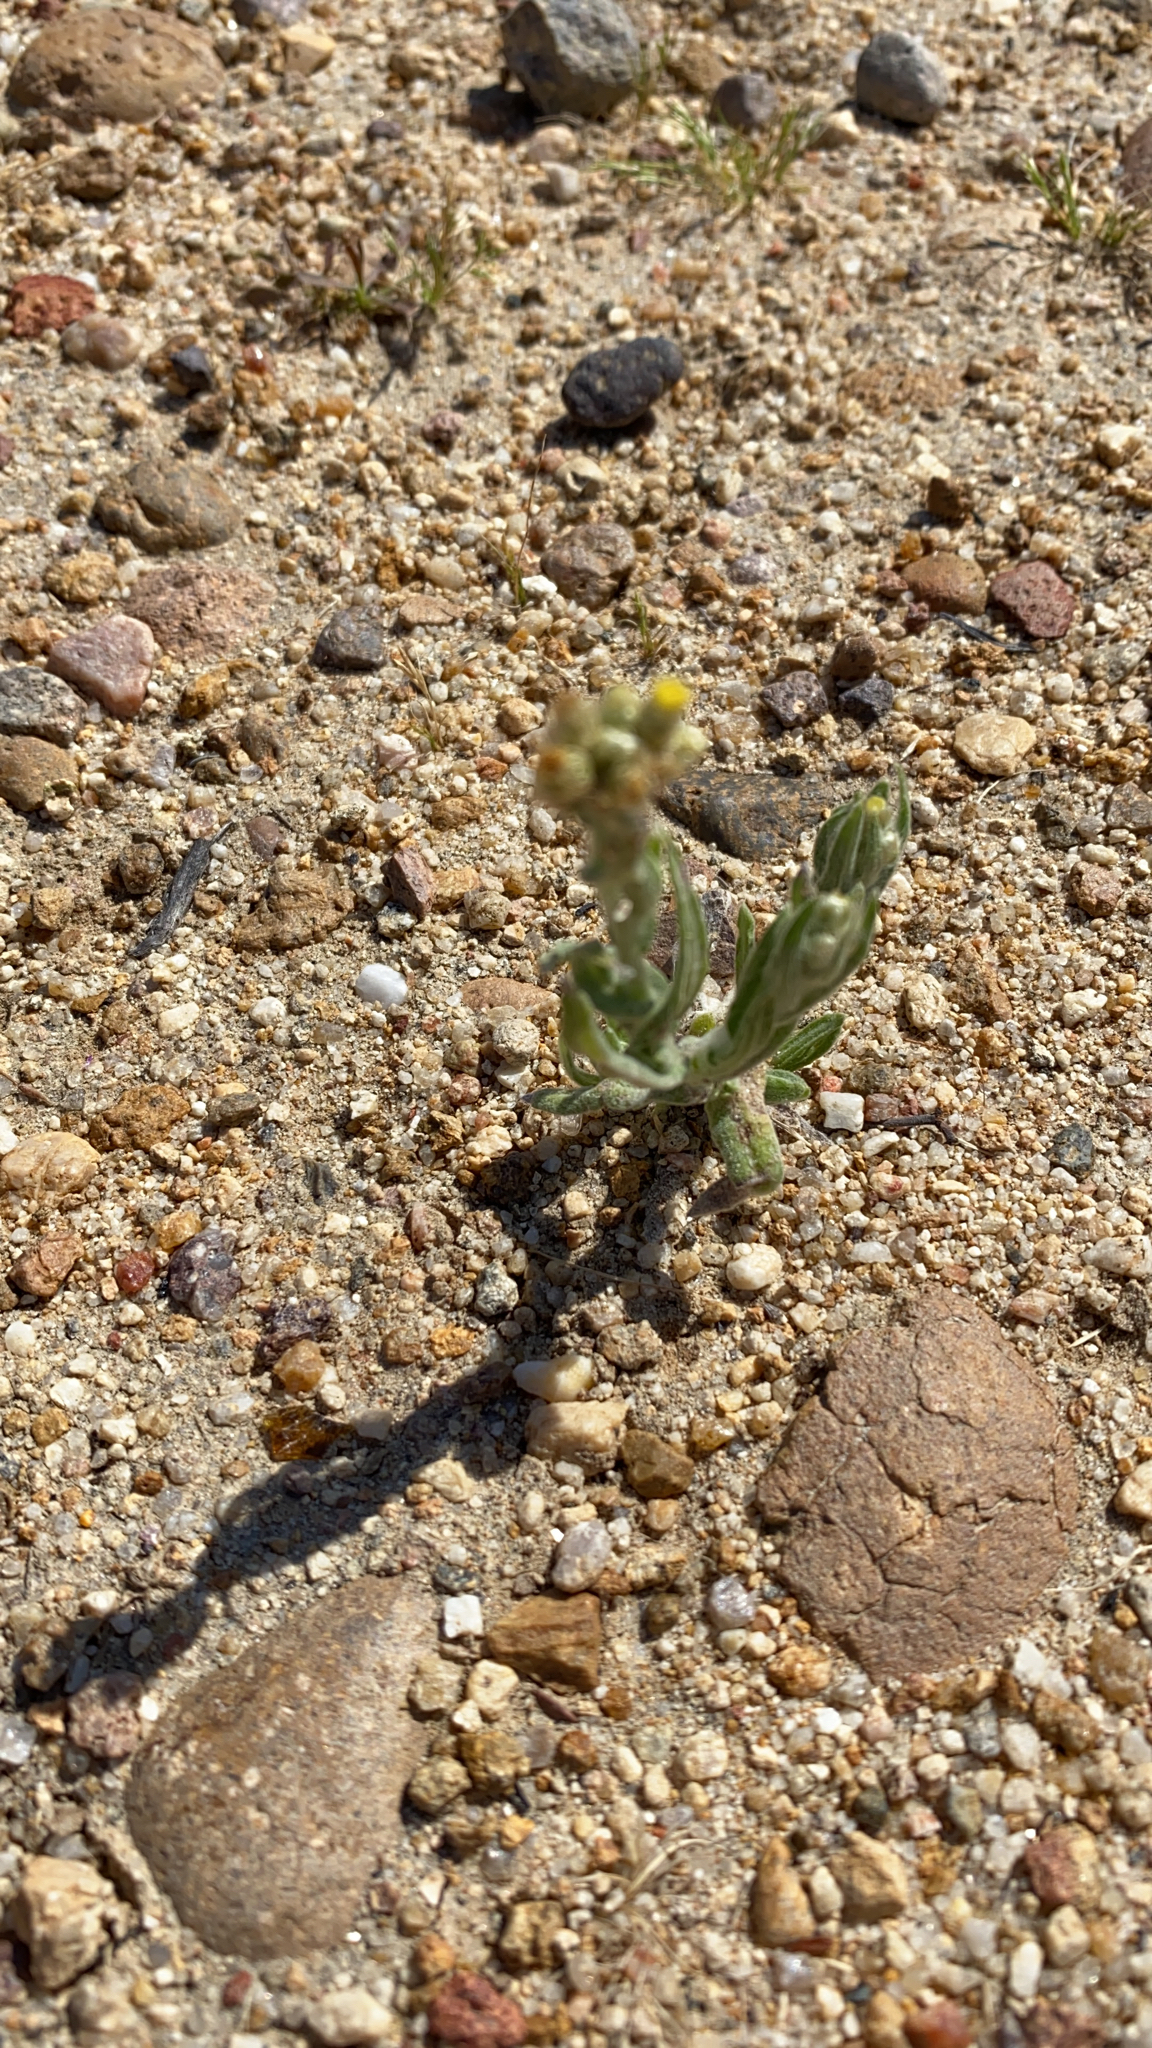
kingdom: Plantae
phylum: Tracheophyta
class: Magnoliopsida
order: Asterales
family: Asteraceae
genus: Pseudognaphalium
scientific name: Pseudognaphalium stramineum
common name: Cotton-batting-plant
